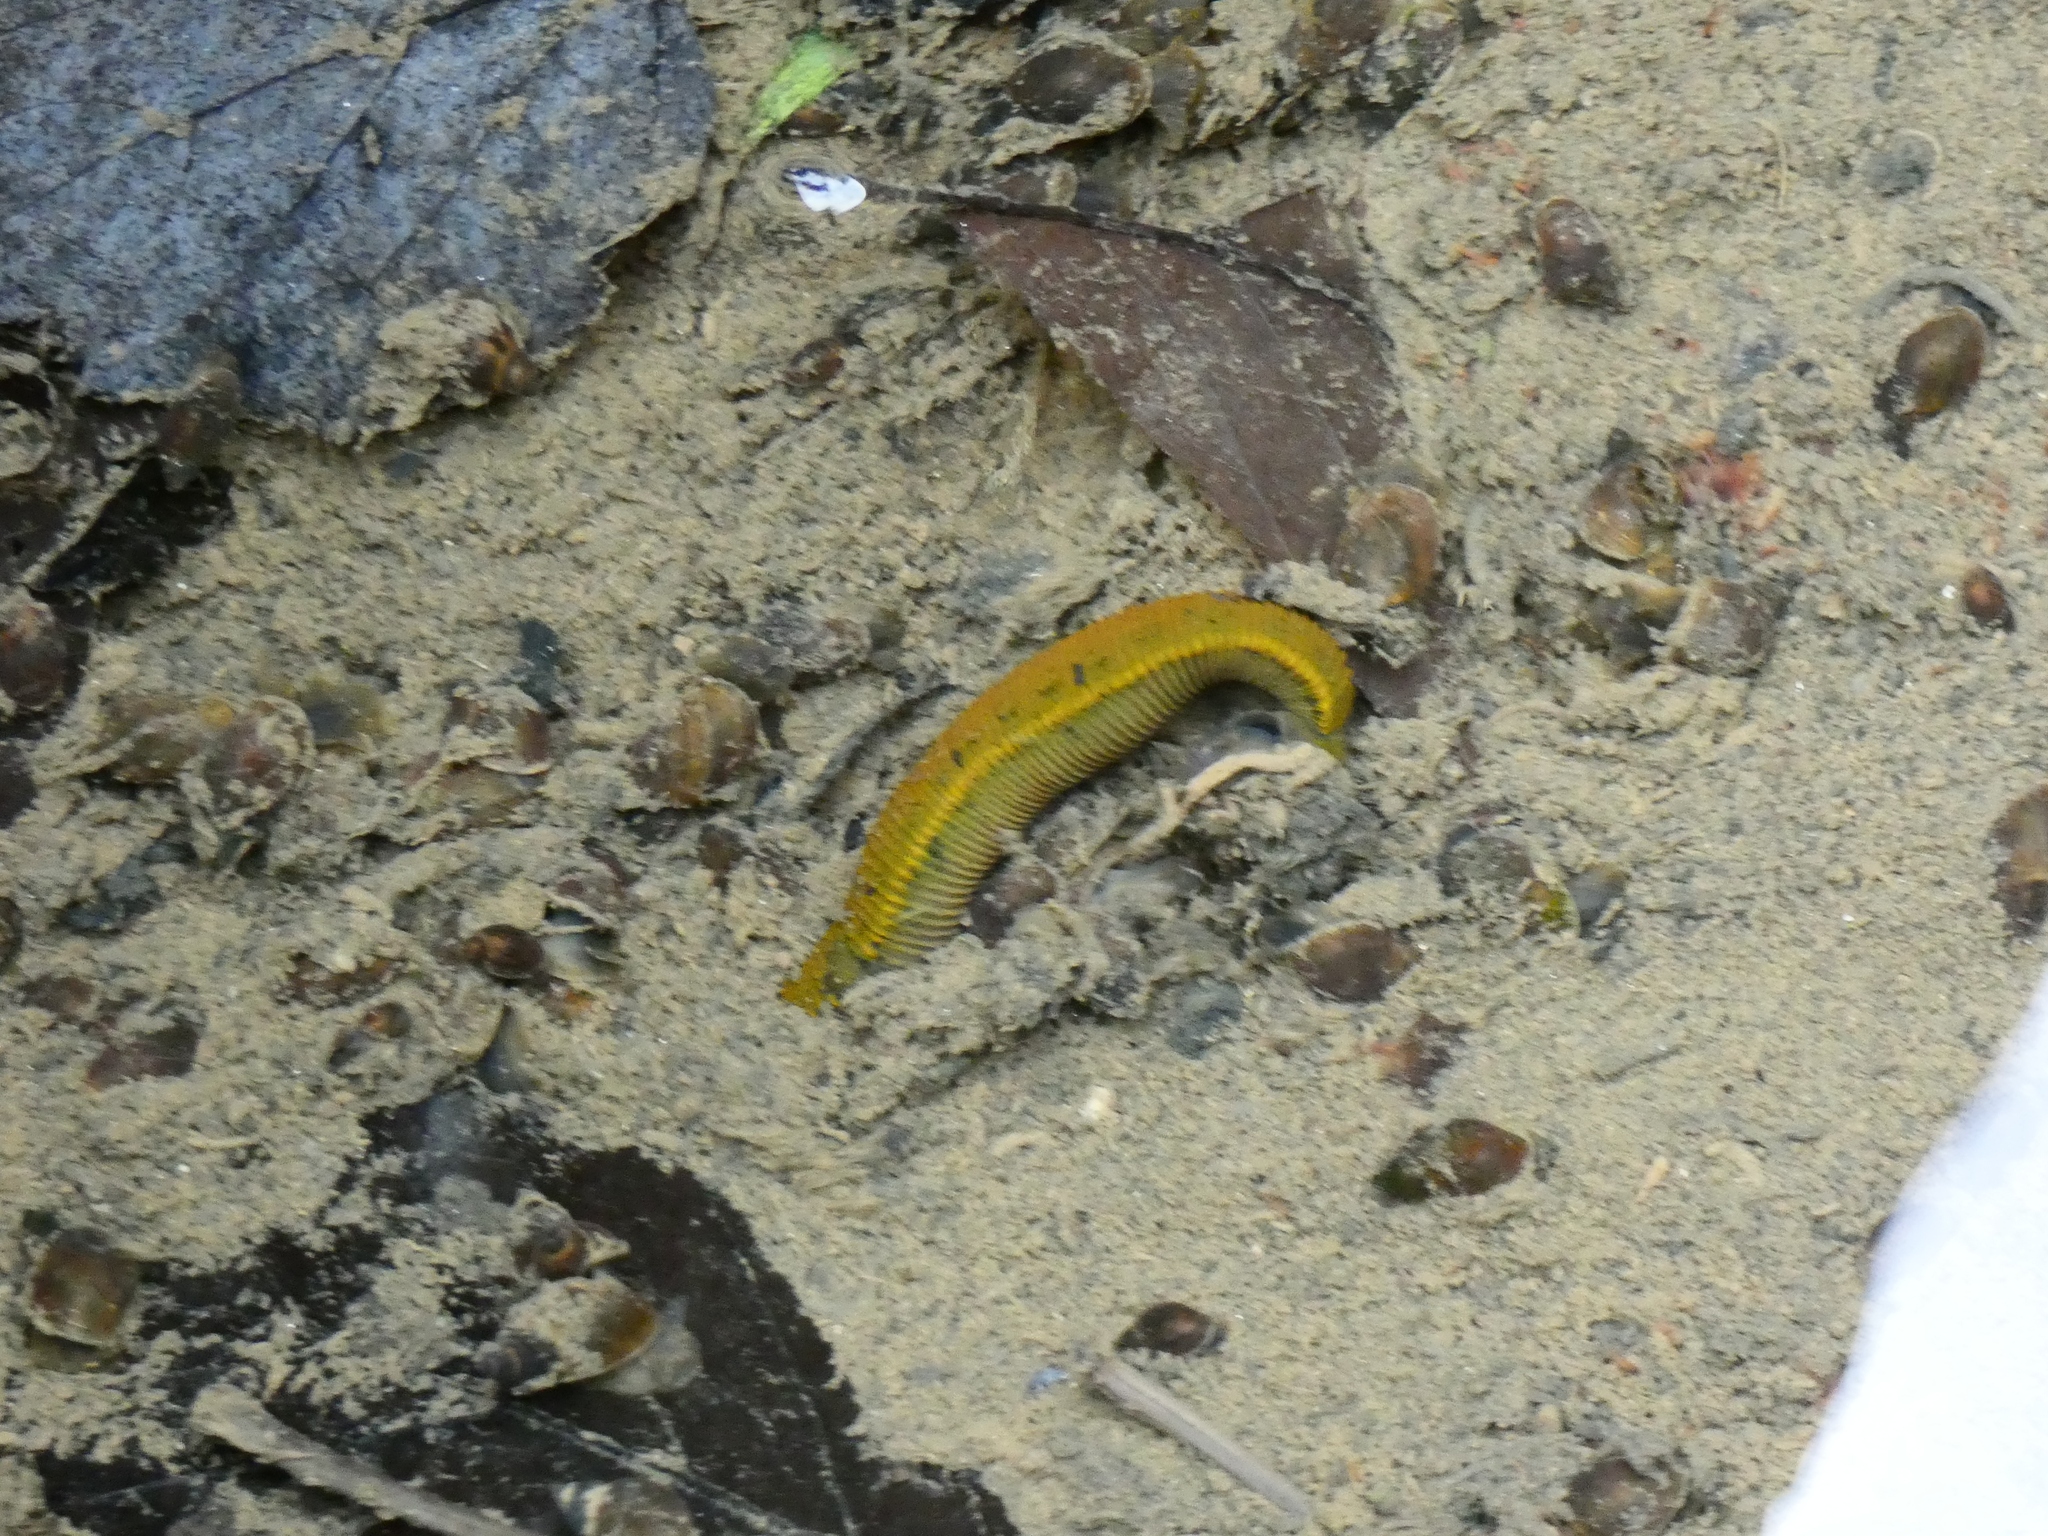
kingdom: Animalia
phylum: Annelida
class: Clitellata
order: Arhynchobdellida
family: Haemopidae
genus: Haemopis
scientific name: Haemopis sanguisuga
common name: Horse leech
